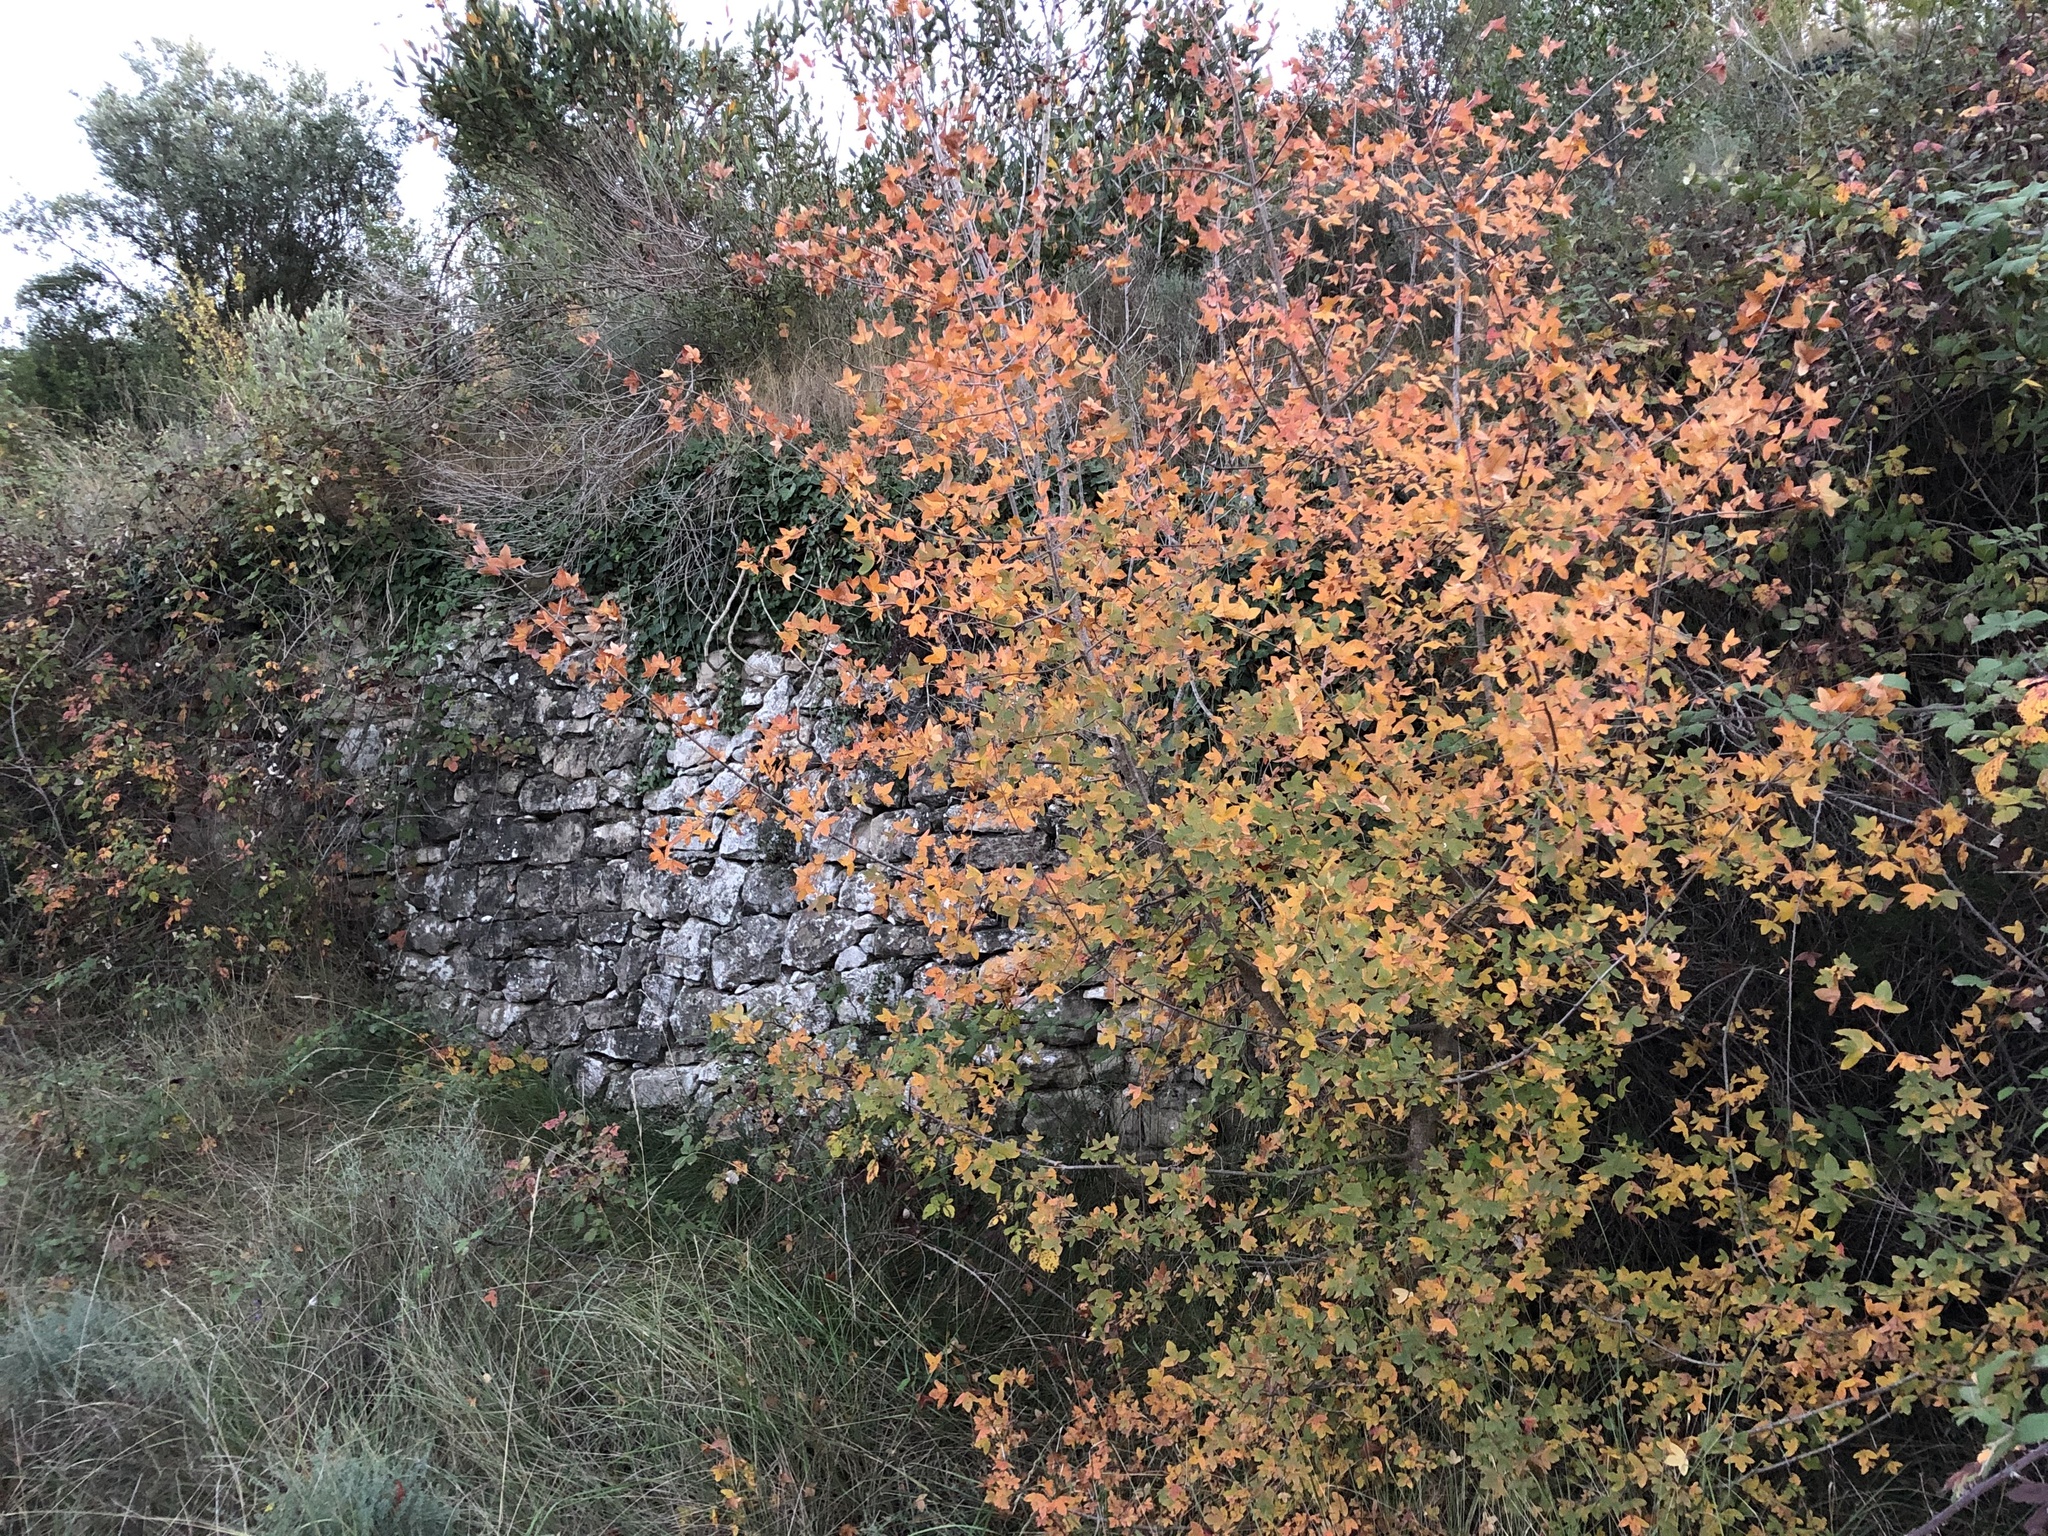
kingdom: Plantae
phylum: Tracheophyta
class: Magnoliopsida
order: Sapindales
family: Sapindaceae
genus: Acer
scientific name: Acer monspessulanum
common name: Montpellier maple
